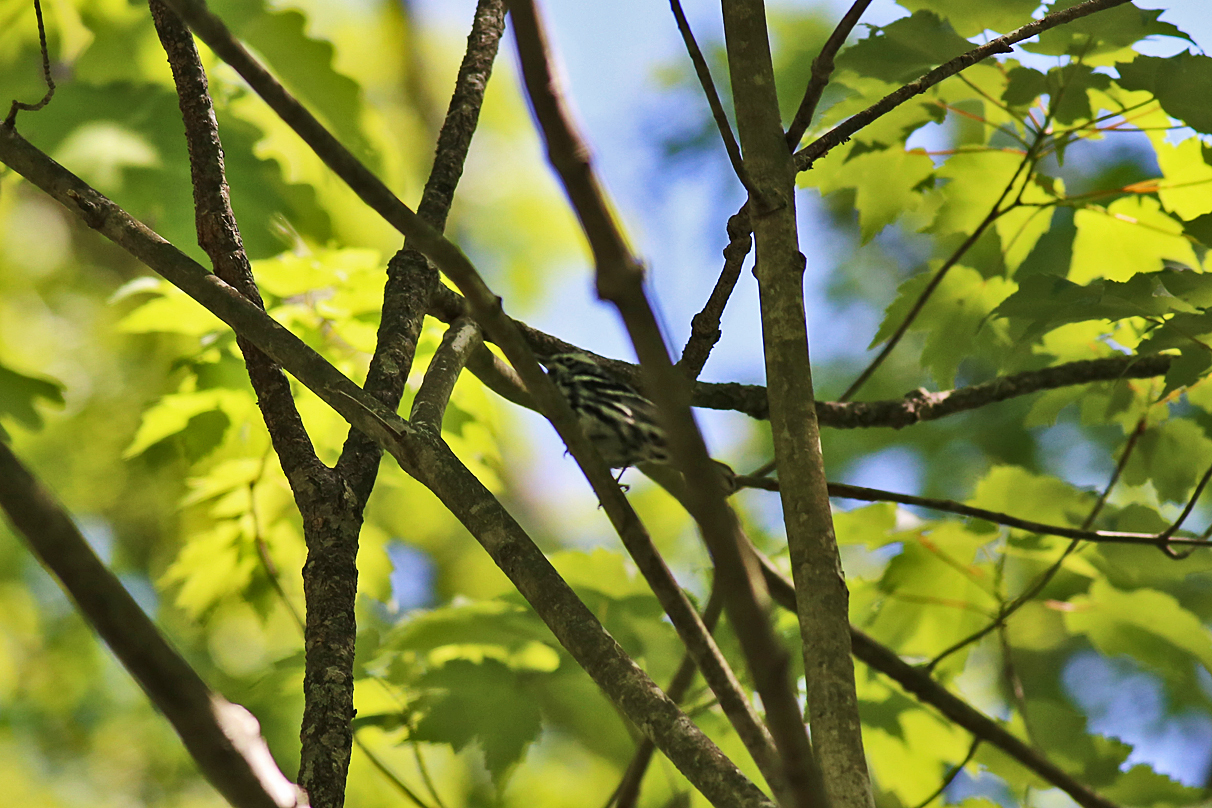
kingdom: Animalia
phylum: Chordata
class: Aves
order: Passeriformes
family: Parulidae
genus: Mniotilta
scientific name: Mniotilta varia
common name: Black-and-white warbler
